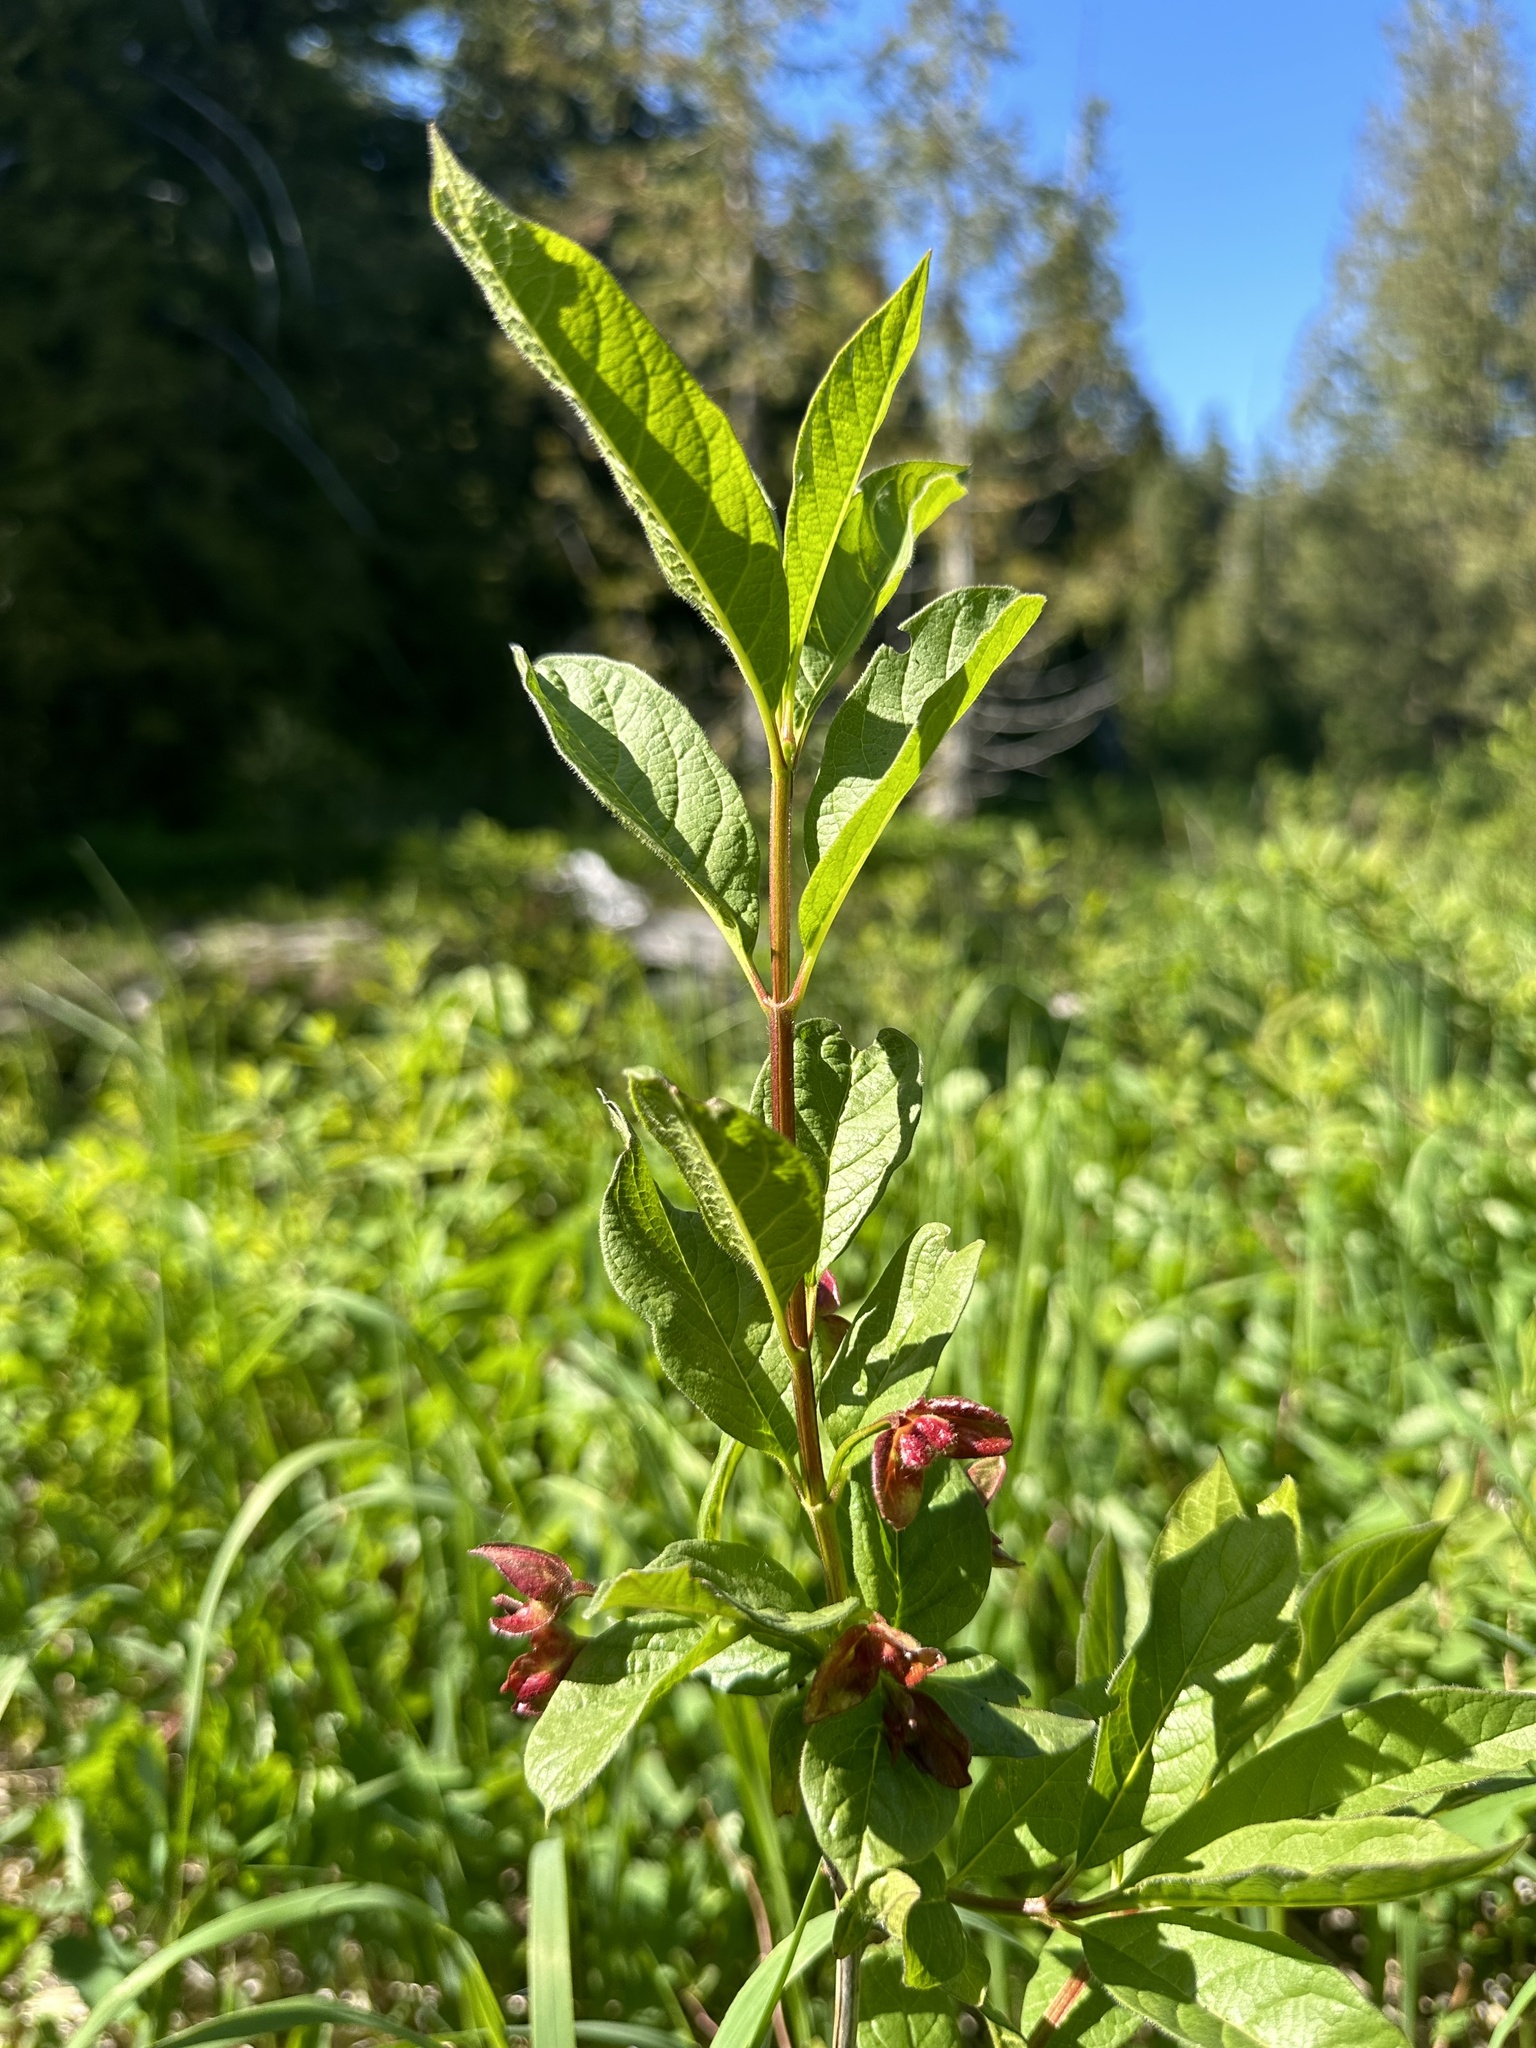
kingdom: Plantae
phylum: Tracheophyta
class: Magnoliopsida
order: Dipsacales
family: Caprifoliaceae
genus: Lonicera
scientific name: Lonicera involucrata
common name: Californian honeysuckle
